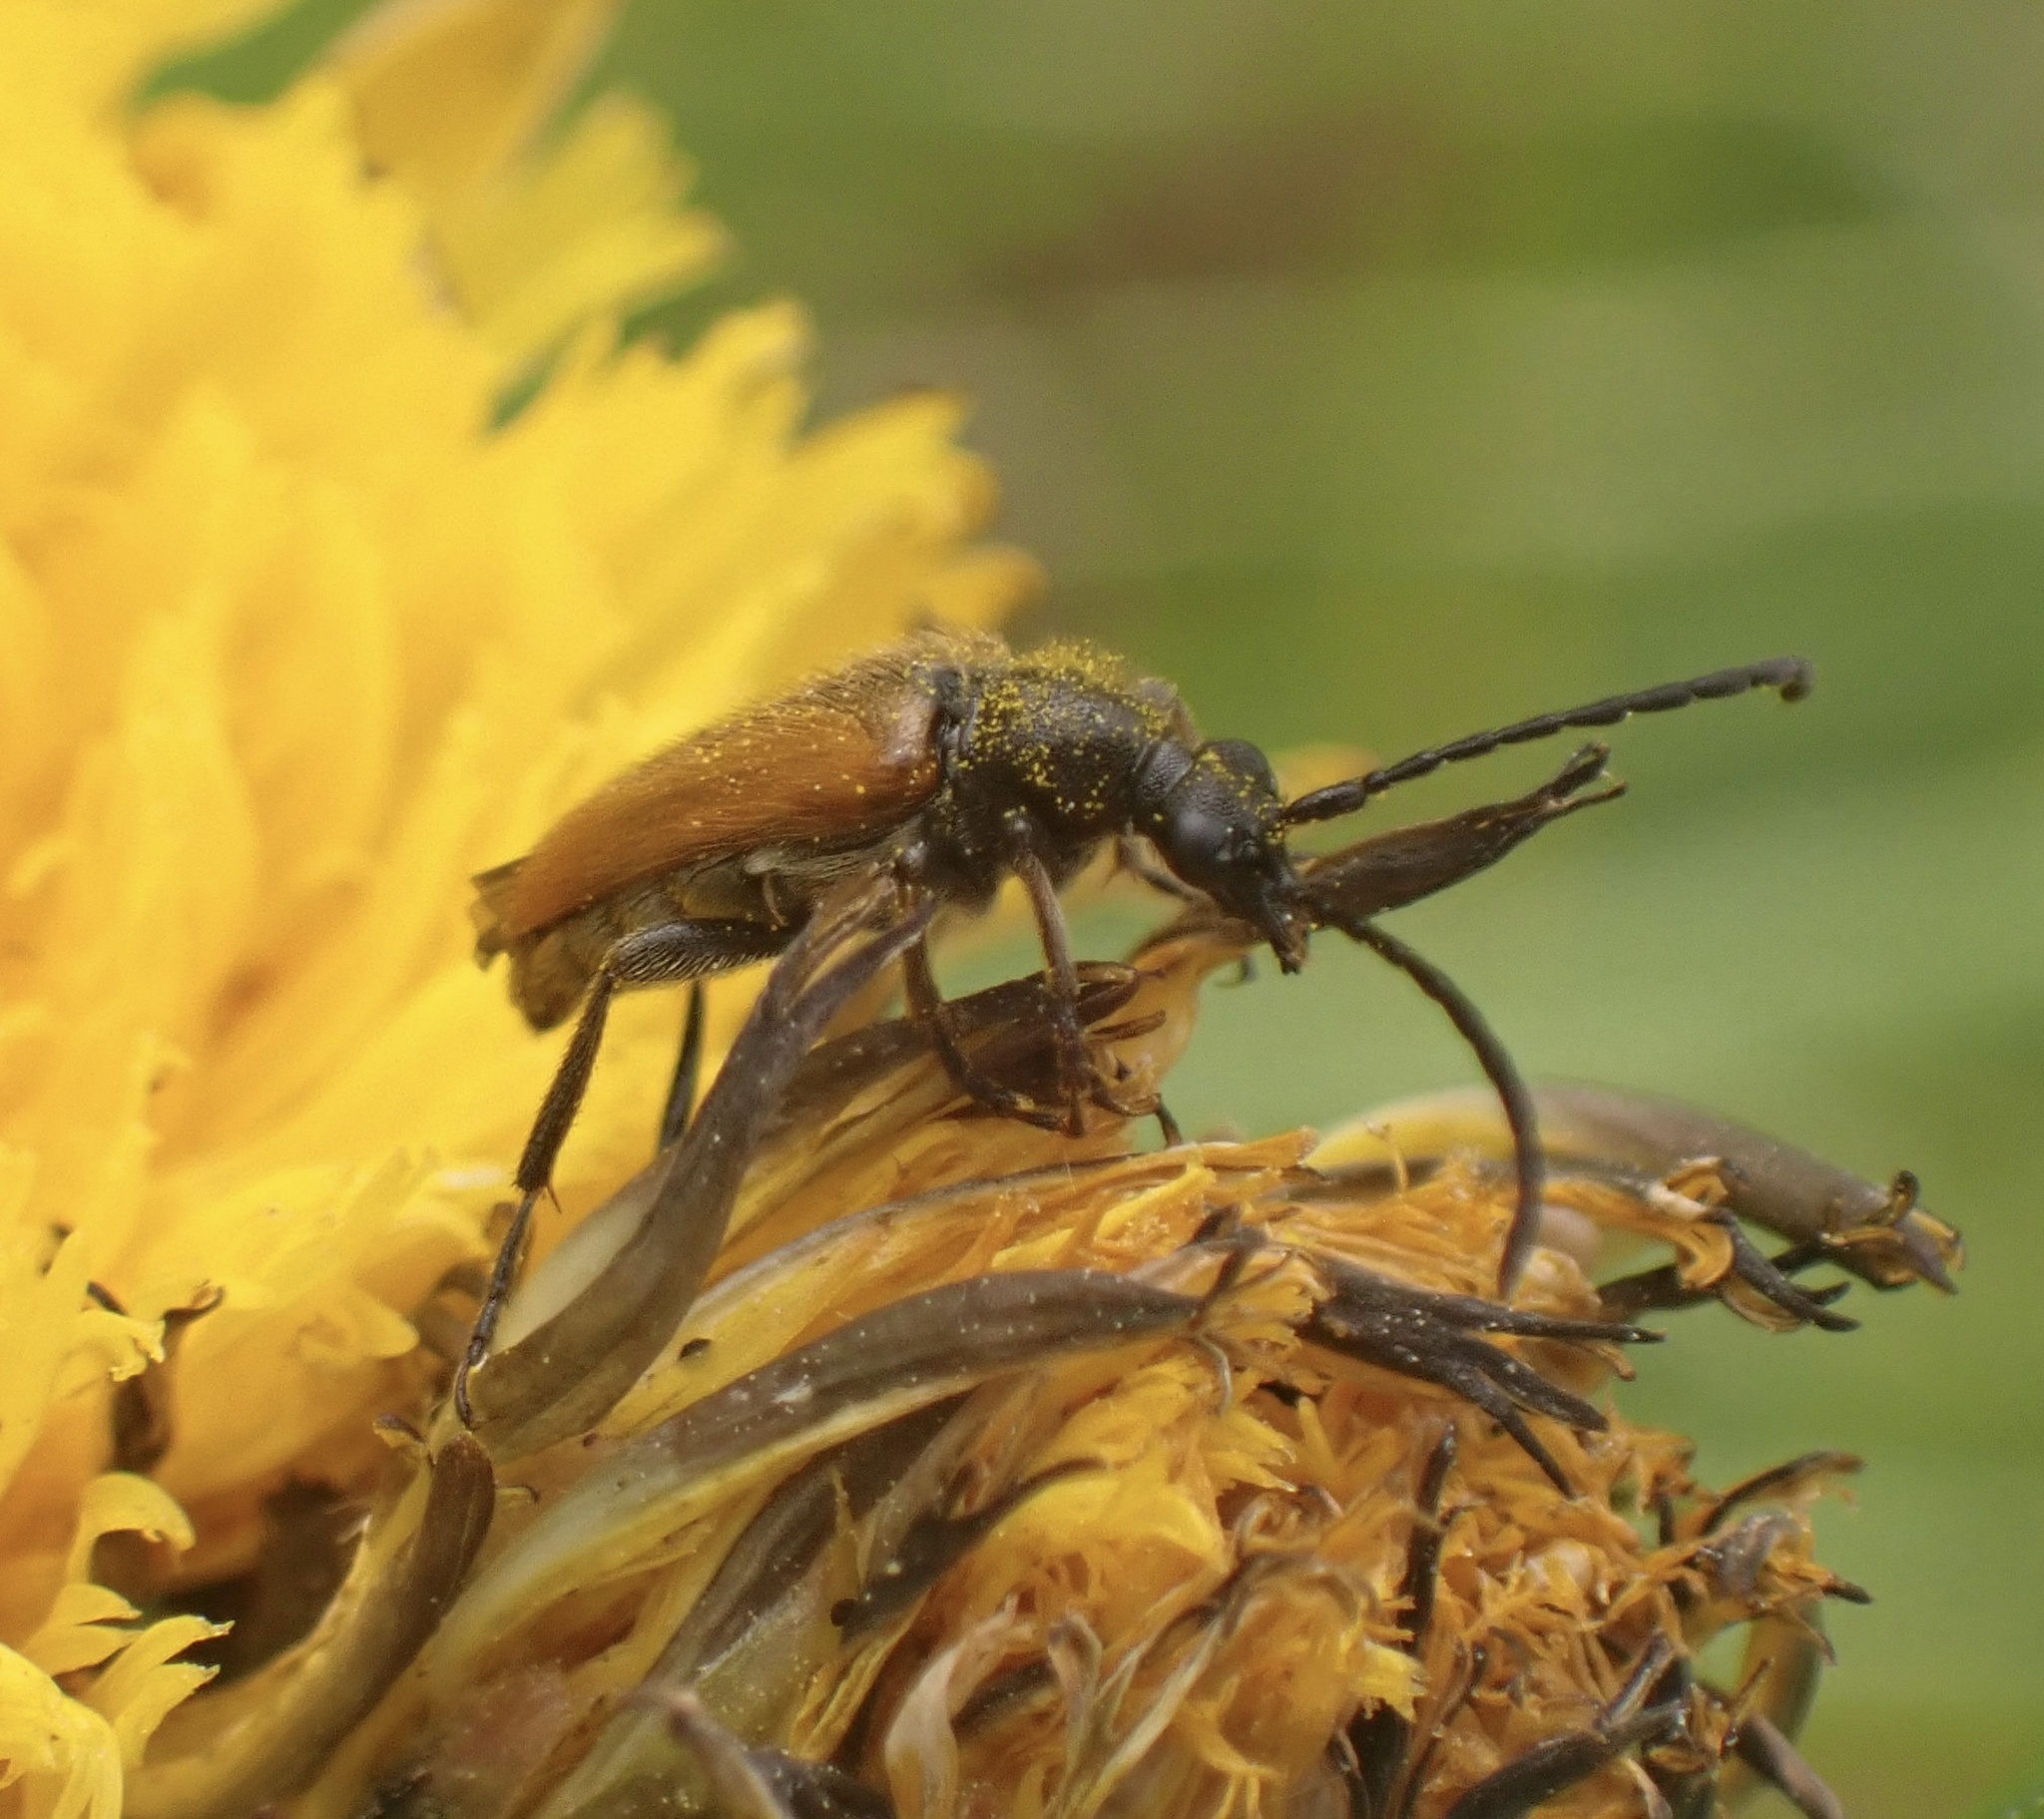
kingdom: Animalia
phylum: Arthropoda
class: Insecta
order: Coleoptera
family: Cerambycidae
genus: Pseudovadonia
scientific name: Pseudovadonia livida
